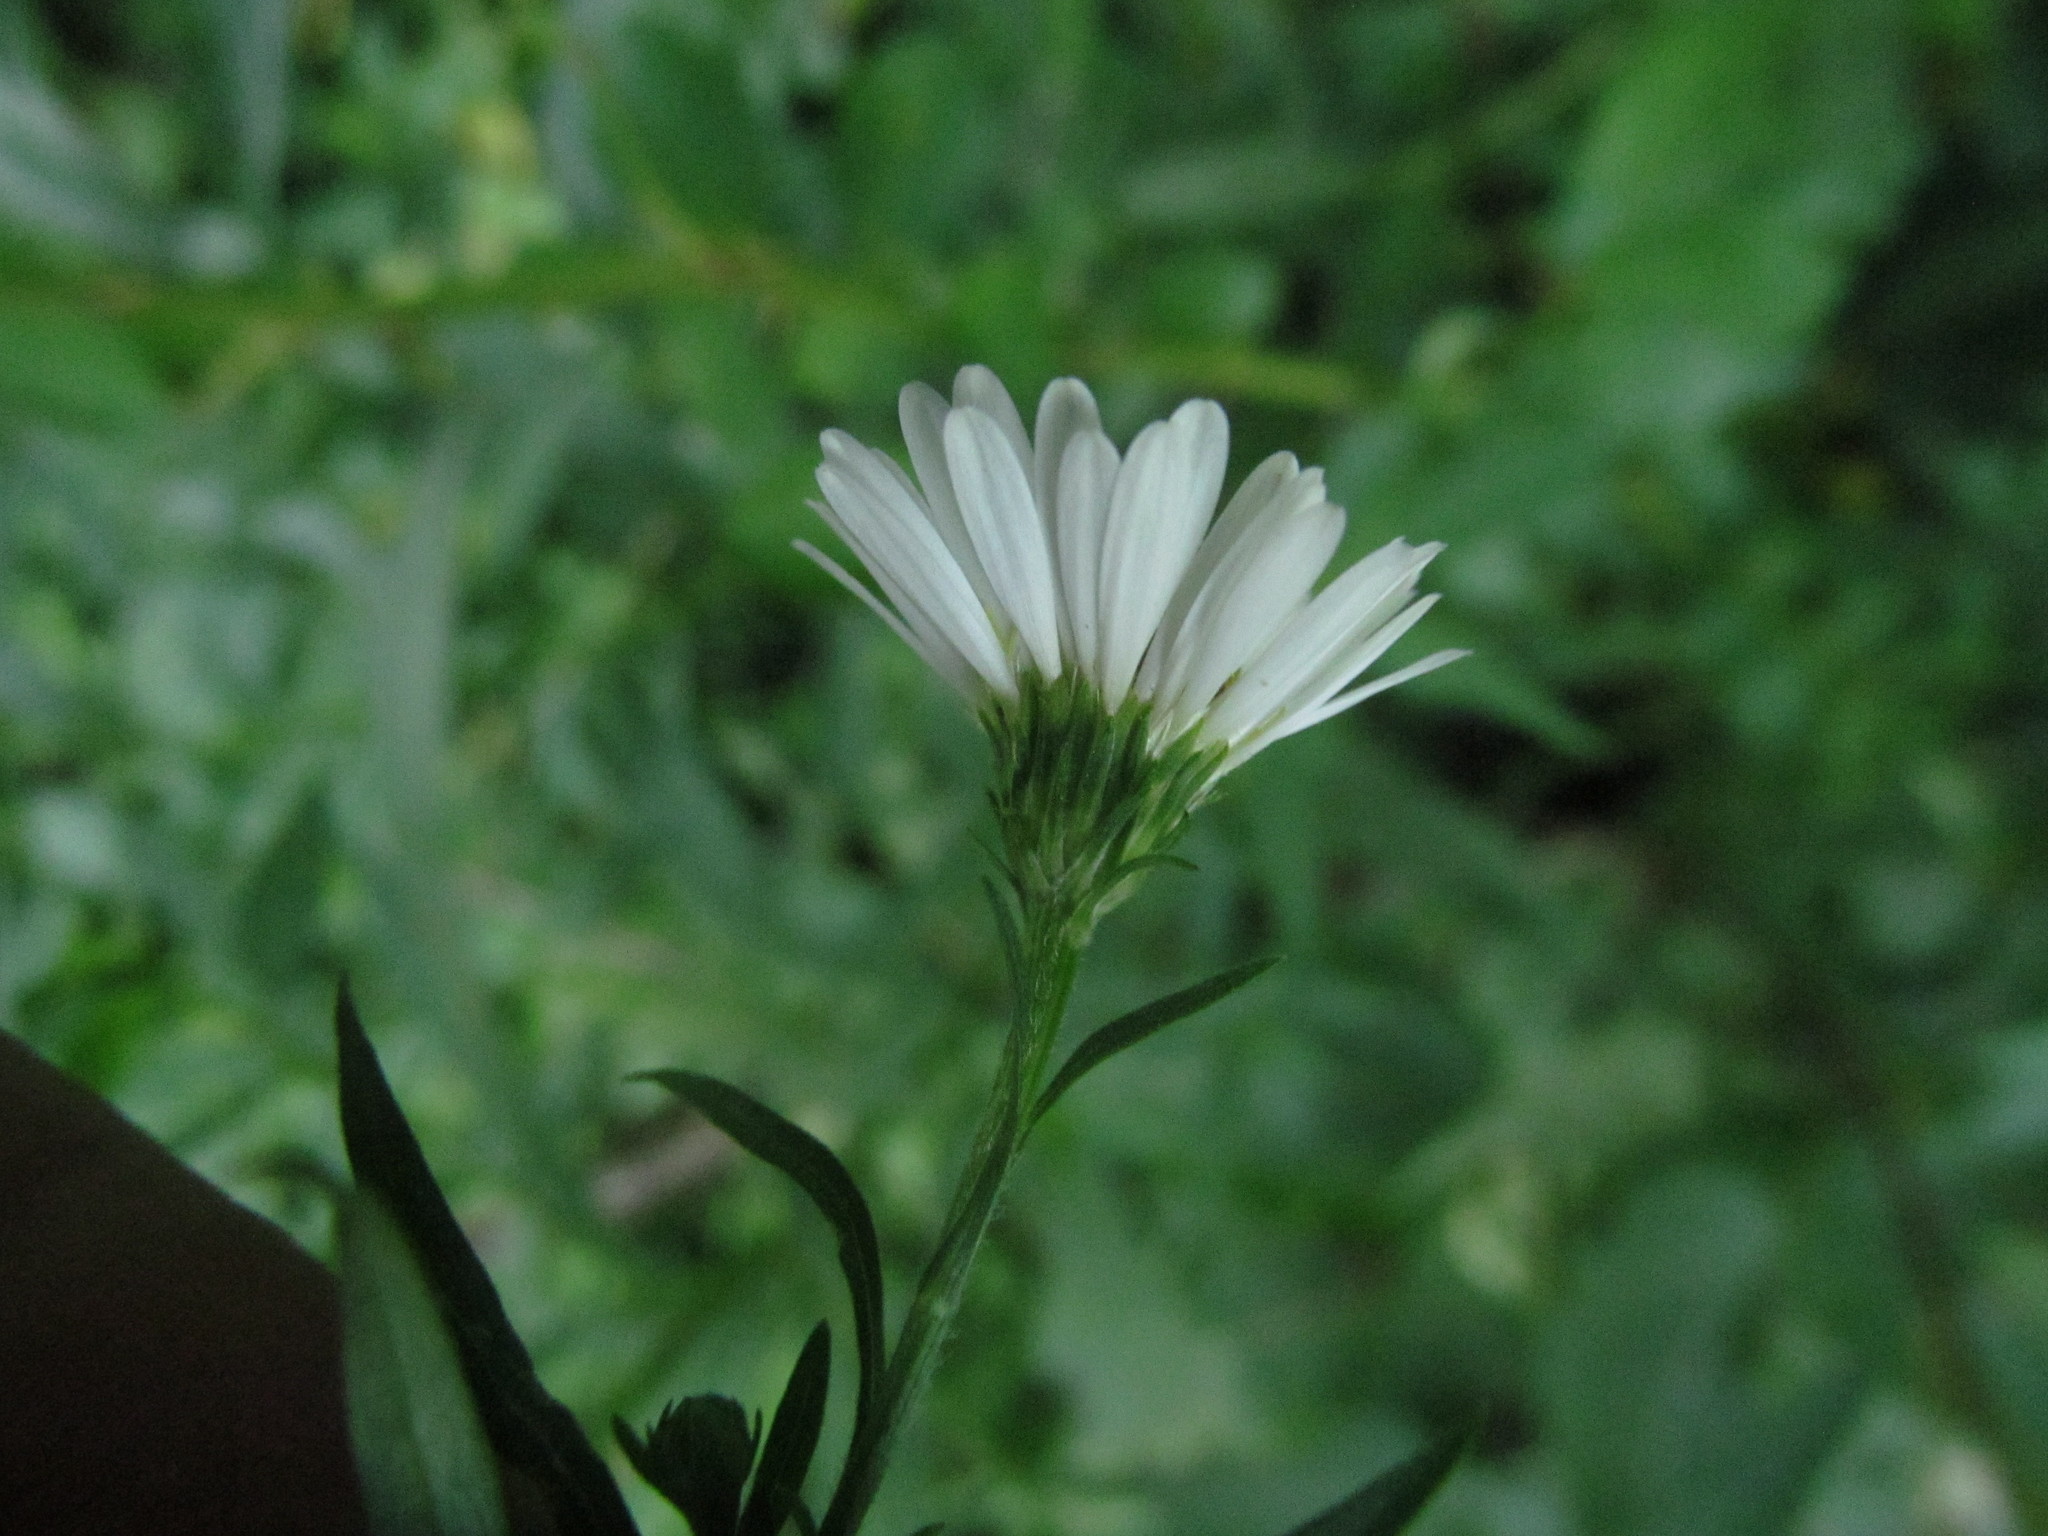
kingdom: Plantae
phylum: Tracheophyta
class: Magnoliopsida
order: Asterales
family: Asteraceae
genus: Symphyotrichum
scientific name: Symphyotrichum lanceolatum
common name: Panicled aster
